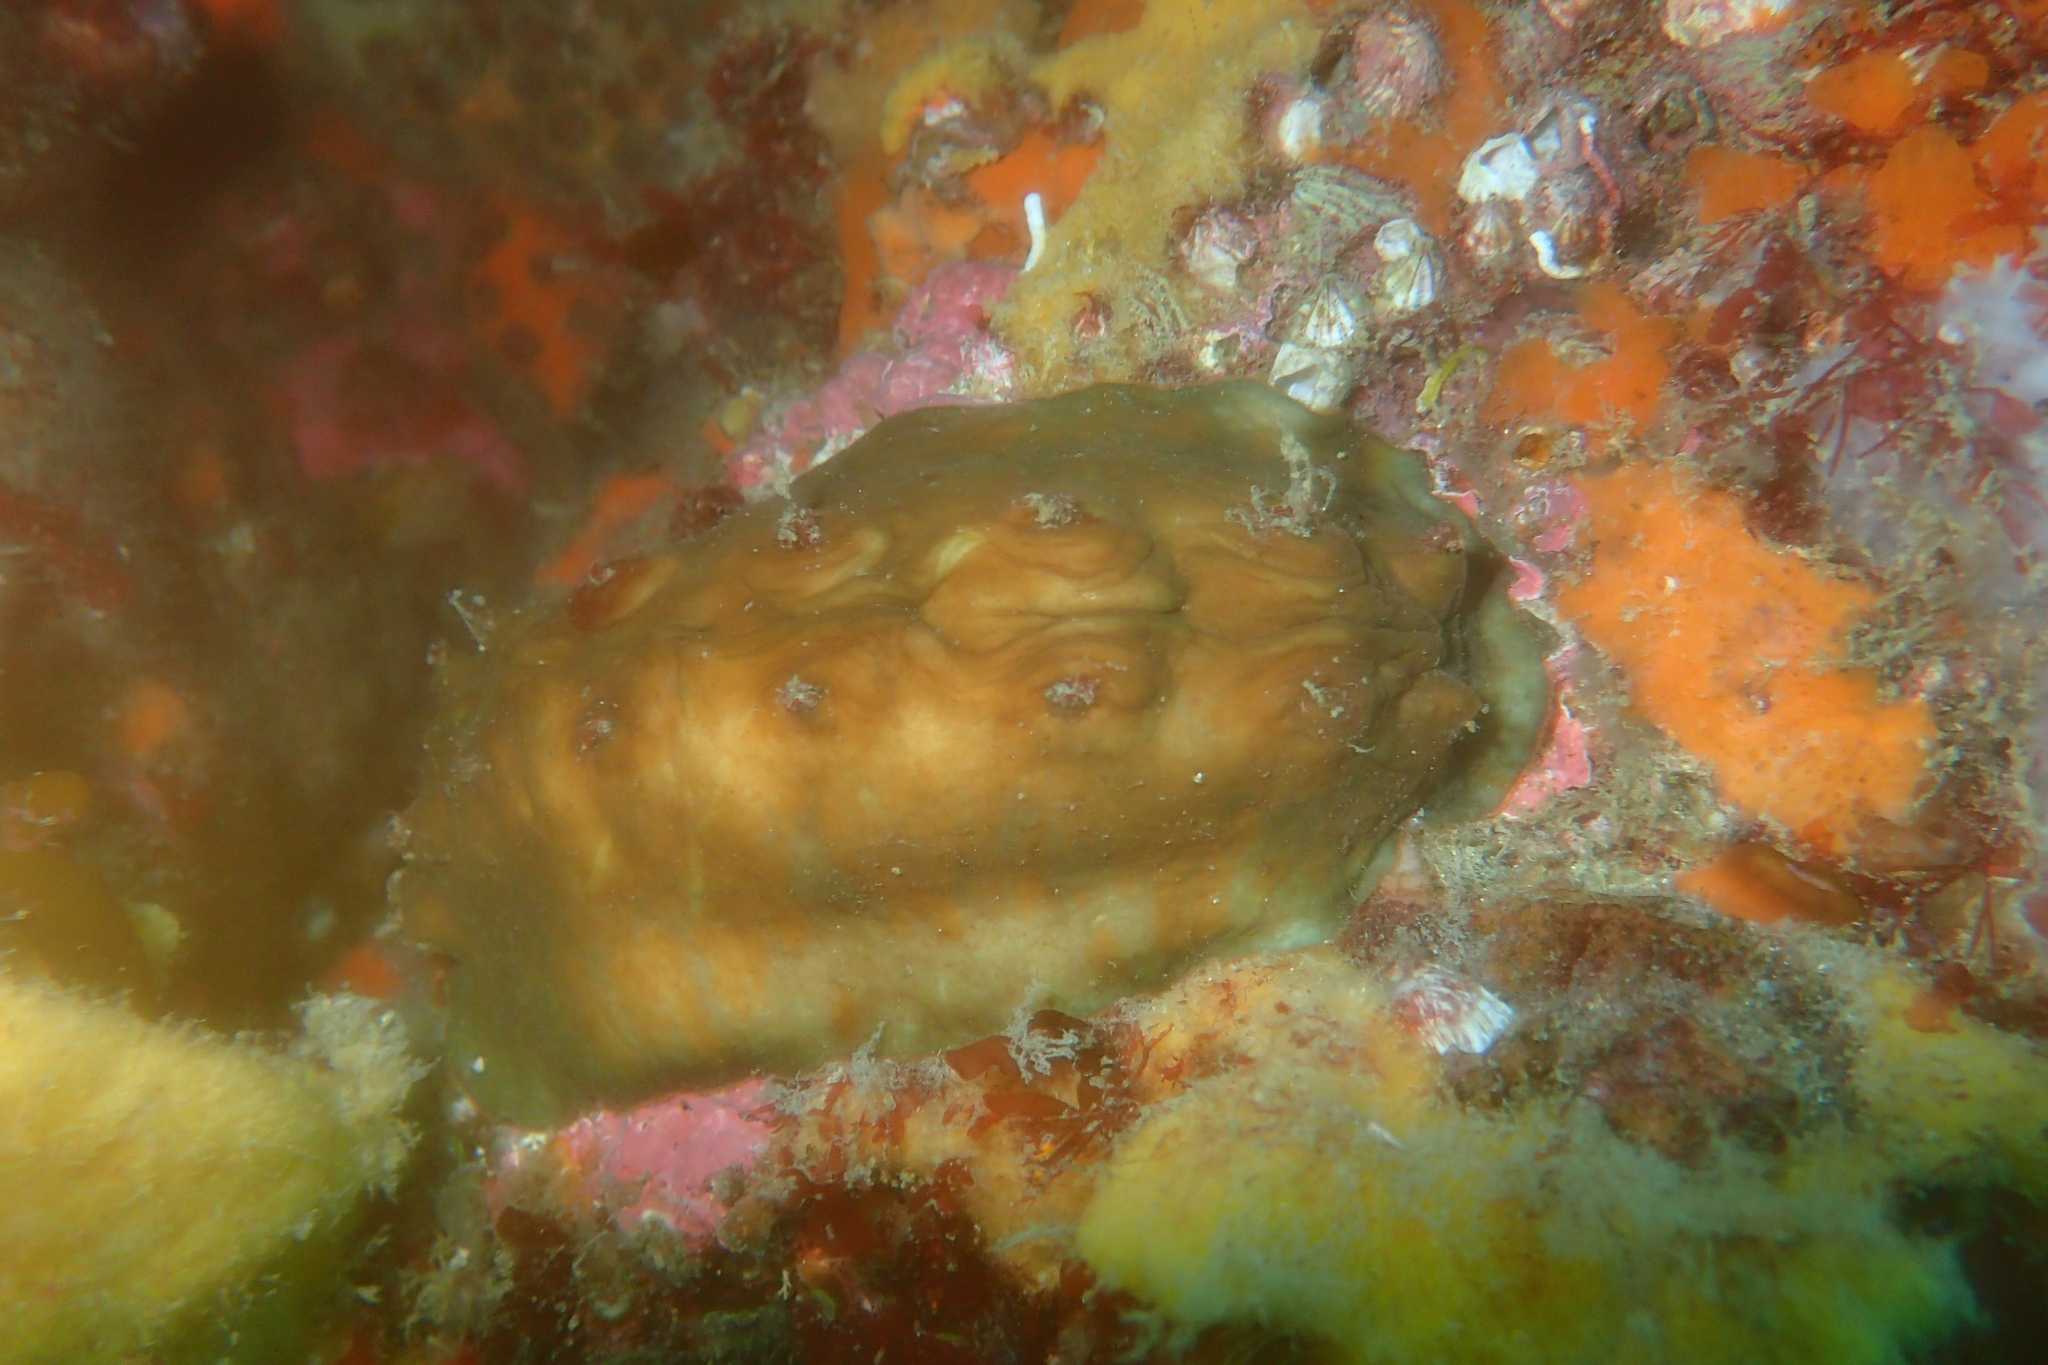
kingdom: Animalia
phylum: Mollusca
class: Polyplacophora
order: Chitonida
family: Acanthochitonidae
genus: Cryptoconchus
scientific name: Cryptoconchus porosus
